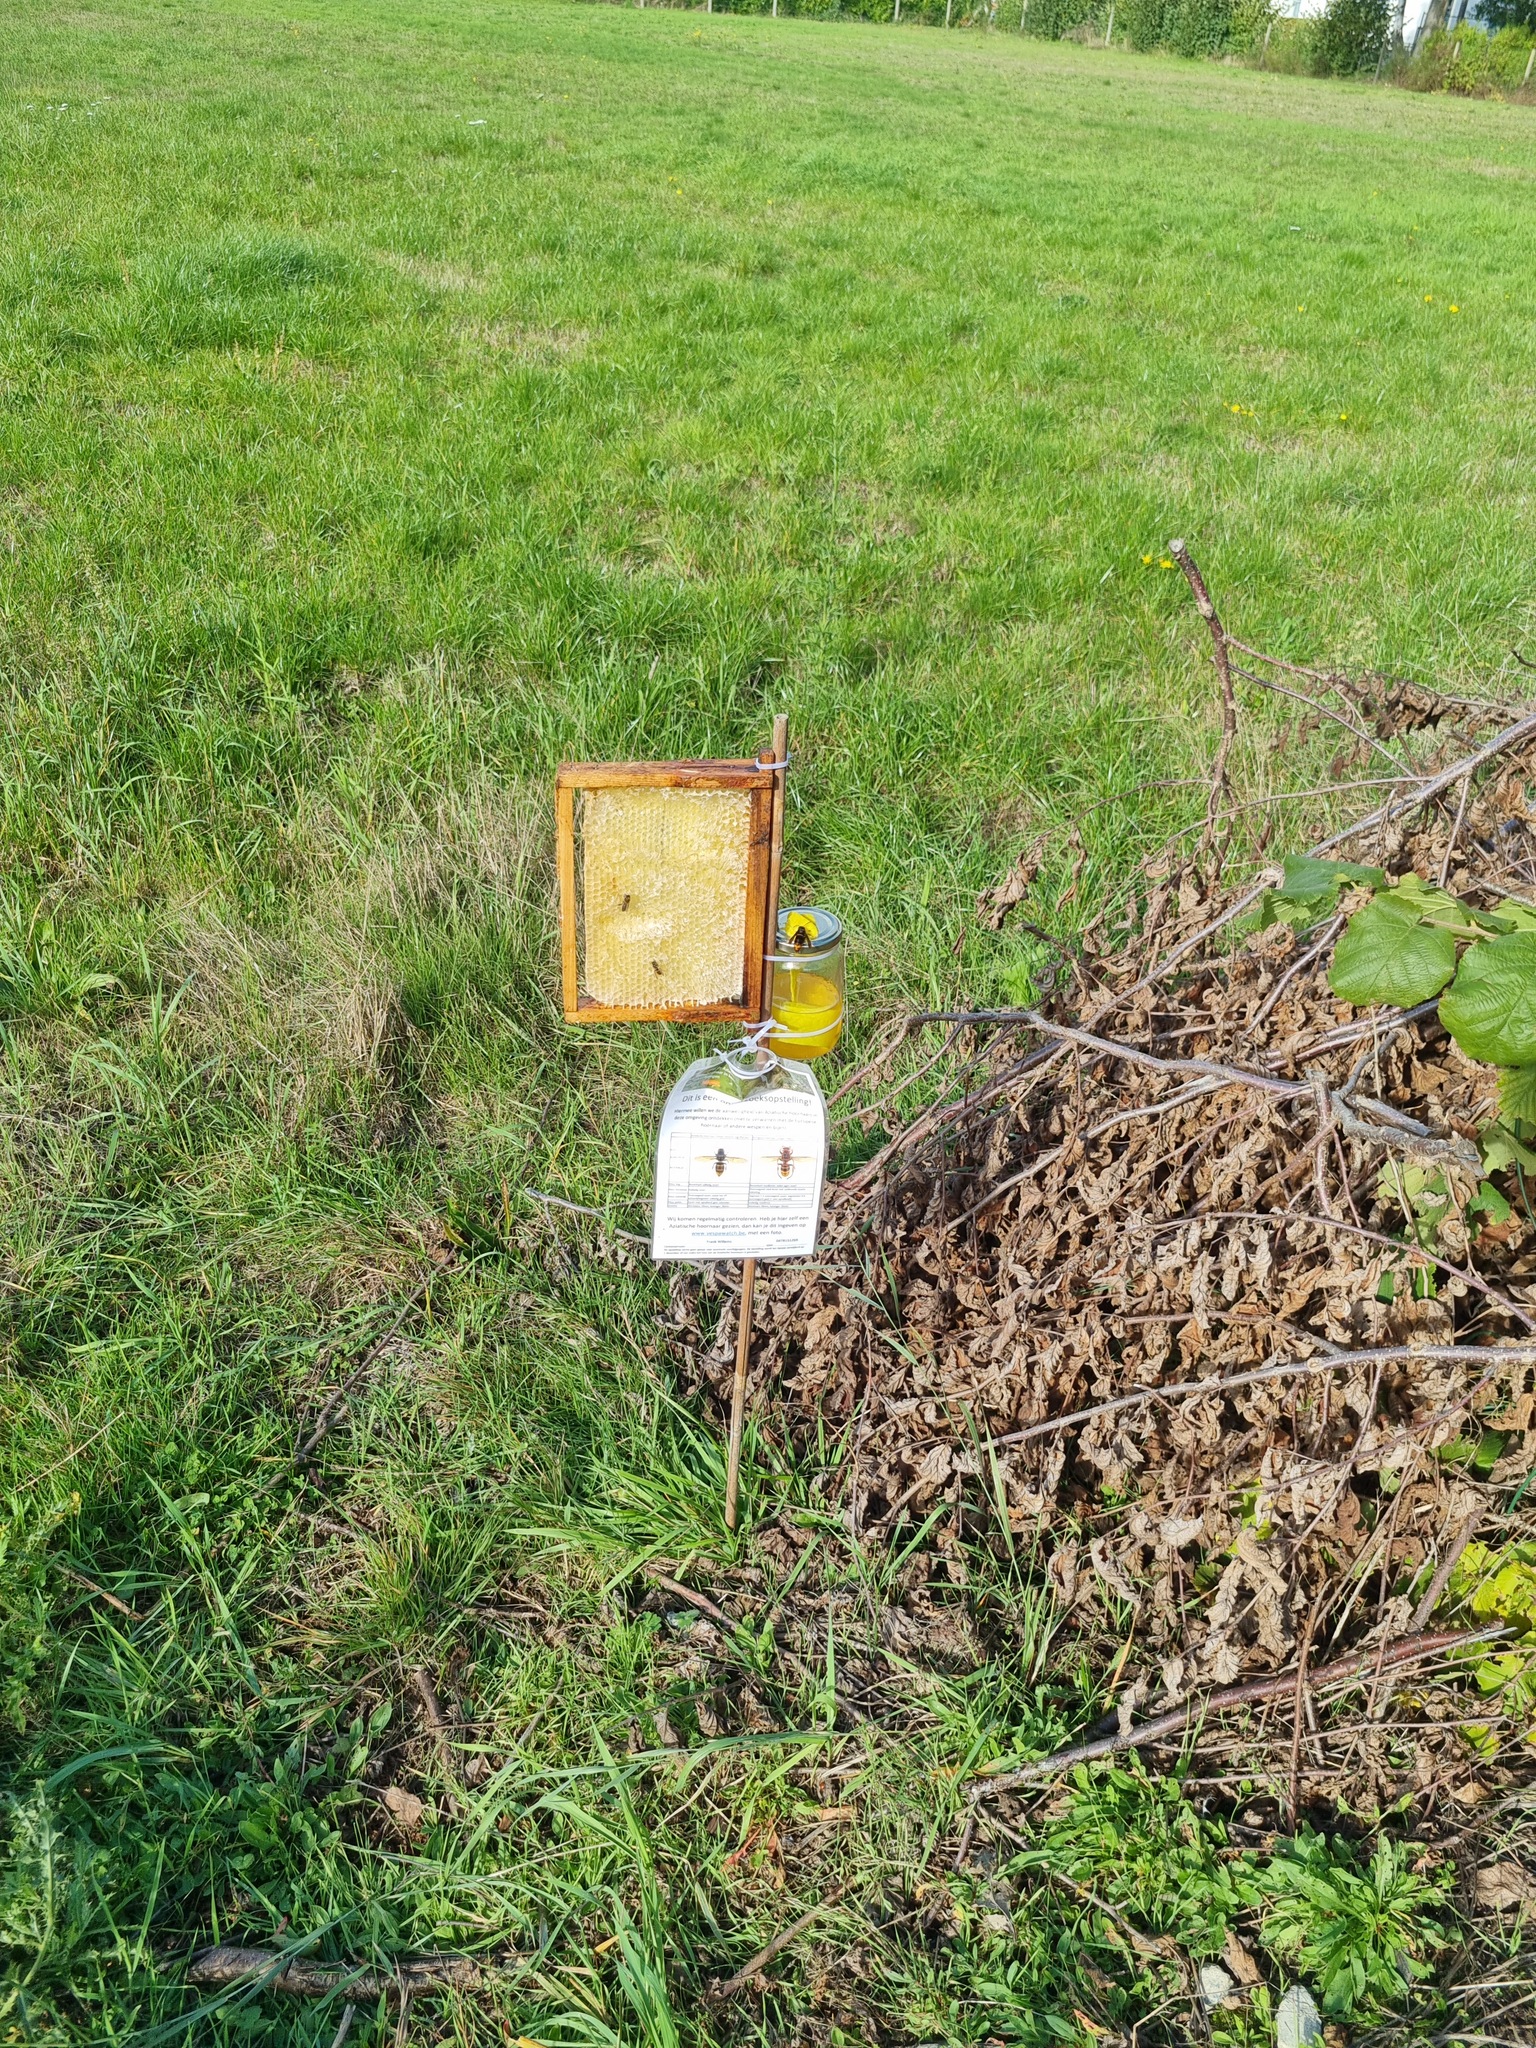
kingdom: Animalia
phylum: Arthropoda
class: Insecta
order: Hymenoptera
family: Vespidae
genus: Vespa
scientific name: Vespa velutina
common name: Asian hornet
